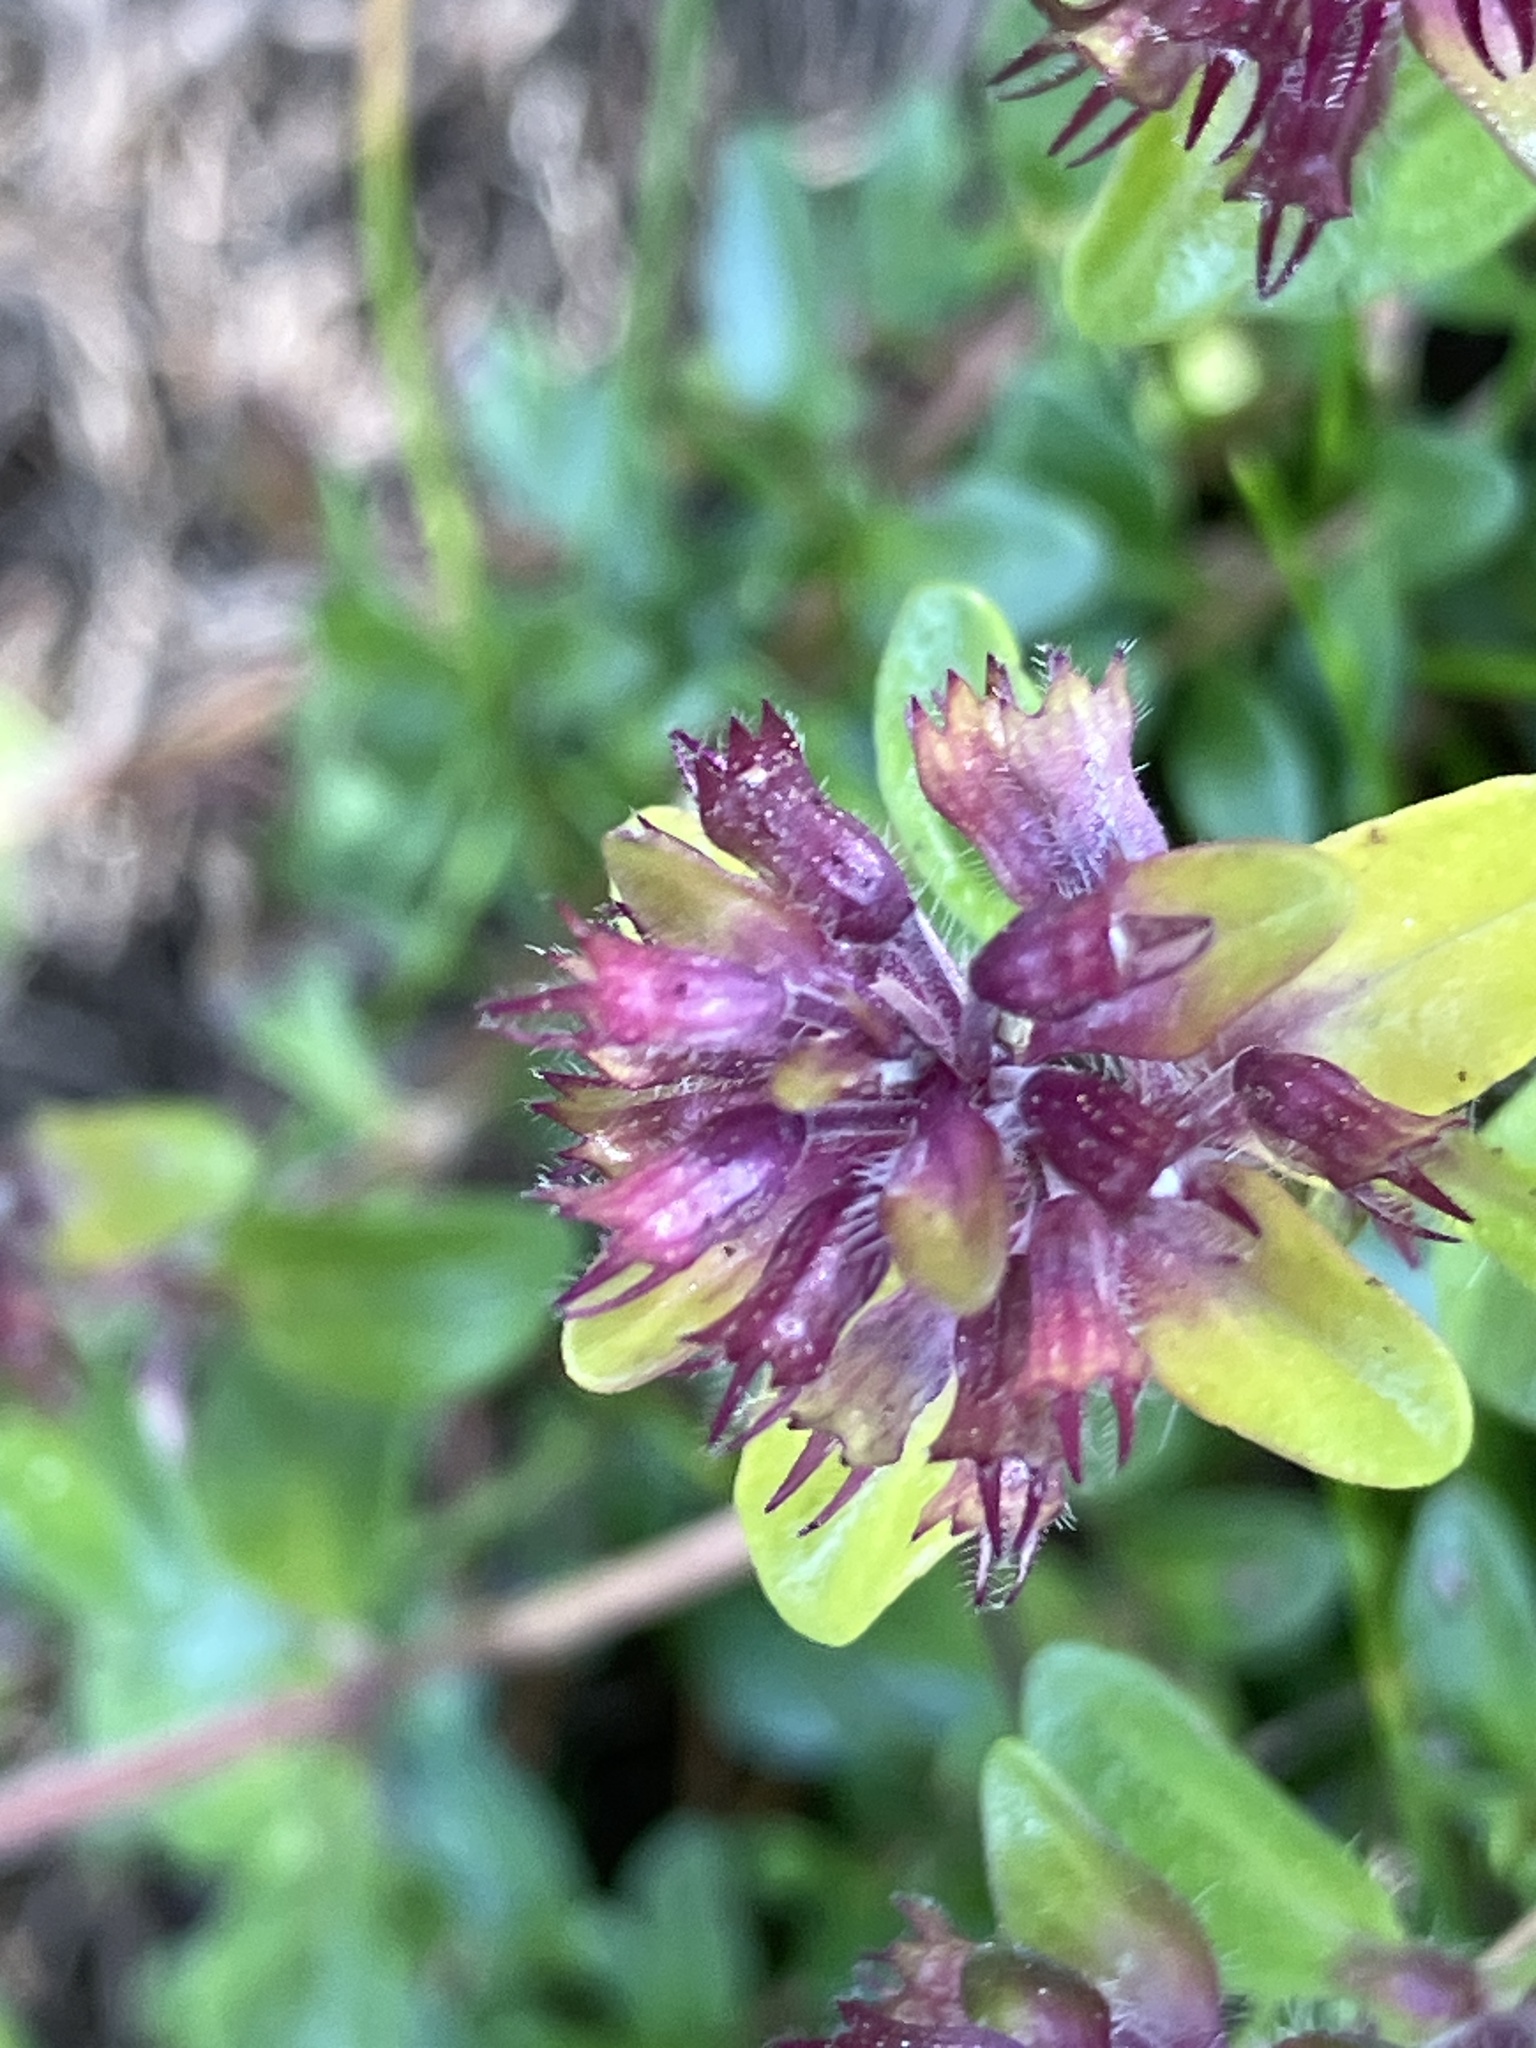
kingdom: Plantae
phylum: Tracheophyta
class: Magnoliopsida
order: Lamiales
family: Lamiaceae
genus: Thymus
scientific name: Thymus pulegioides
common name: Large thyme
